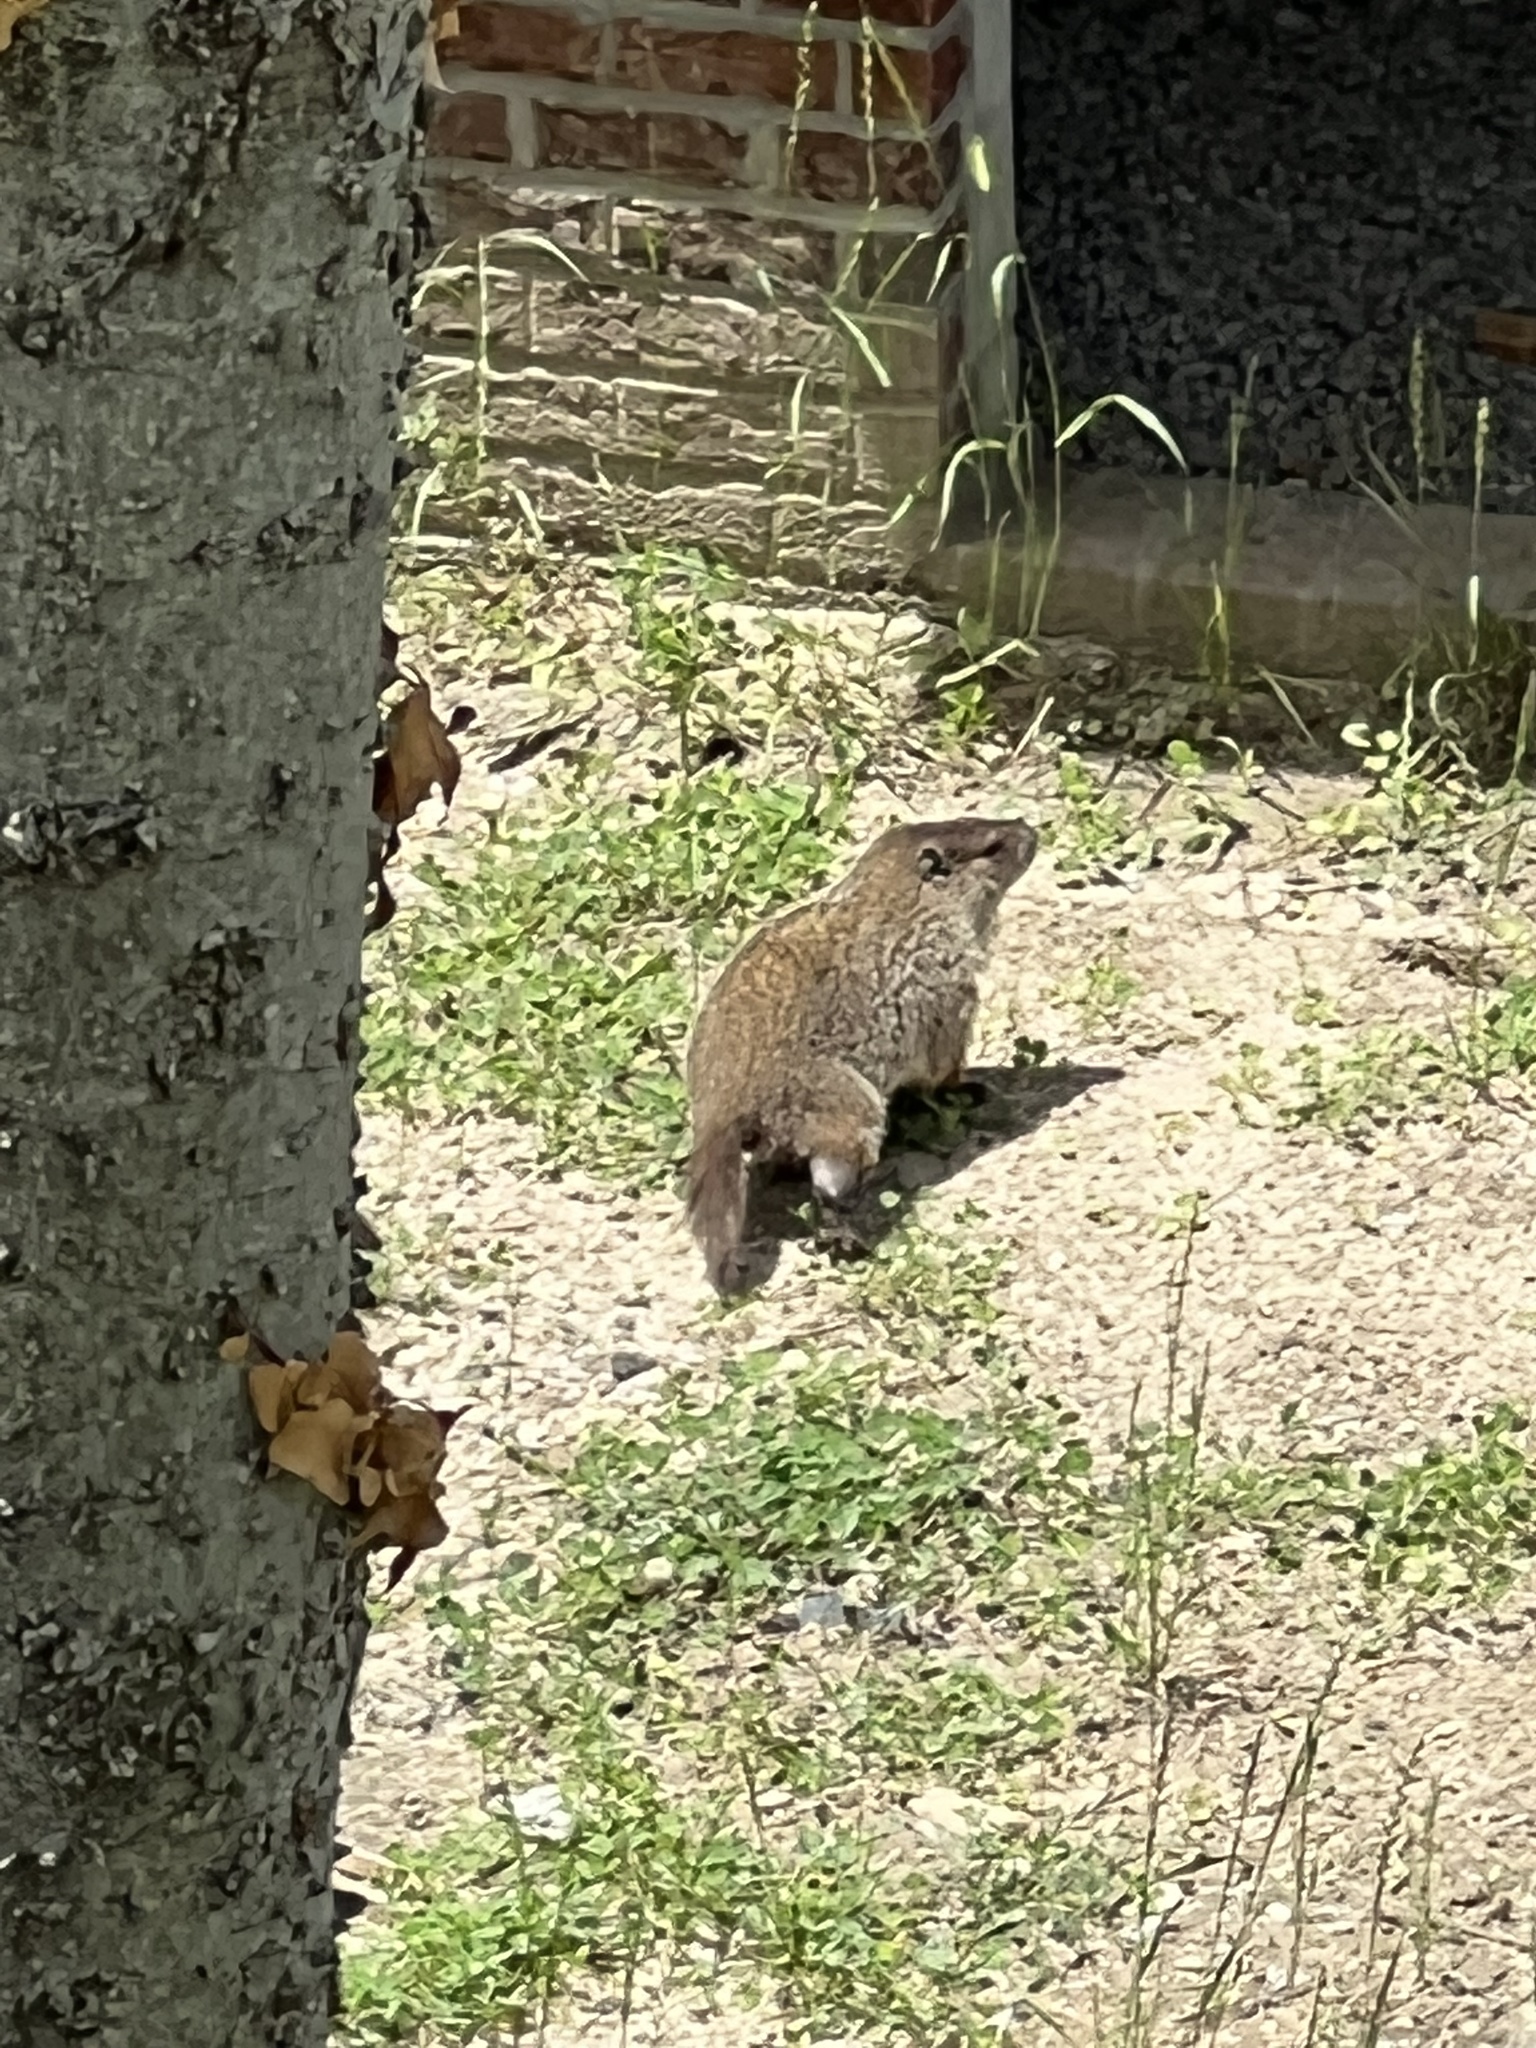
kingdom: Animalia
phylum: Chordata
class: Mammalia
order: Rodentia
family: Sciuridae
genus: Marmota
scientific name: Marmota monax
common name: Groundhog
